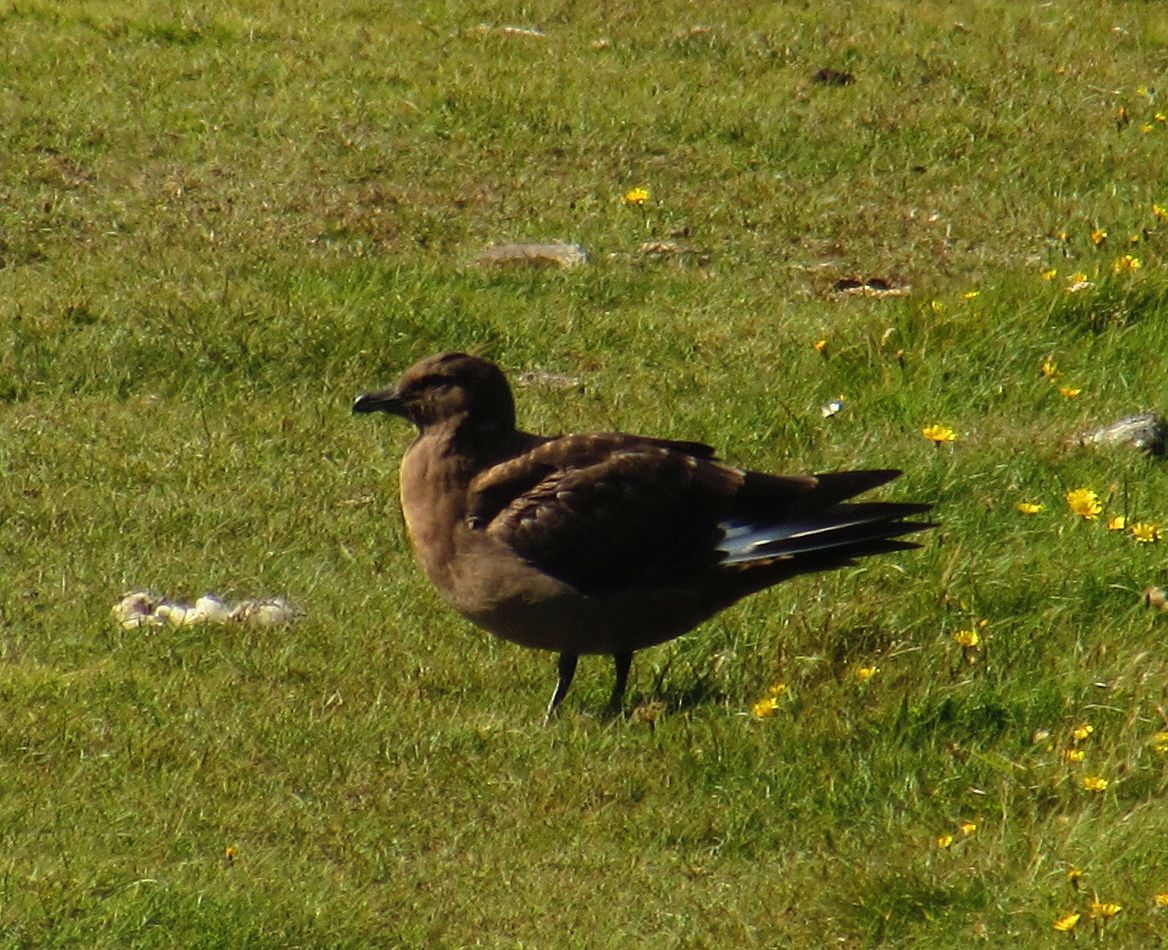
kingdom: Animalia
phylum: Chordata
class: Aves
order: Charadriiformes
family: Stercorariidae
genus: Stercorarius
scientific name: Stercorarius skua
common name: Great skua
